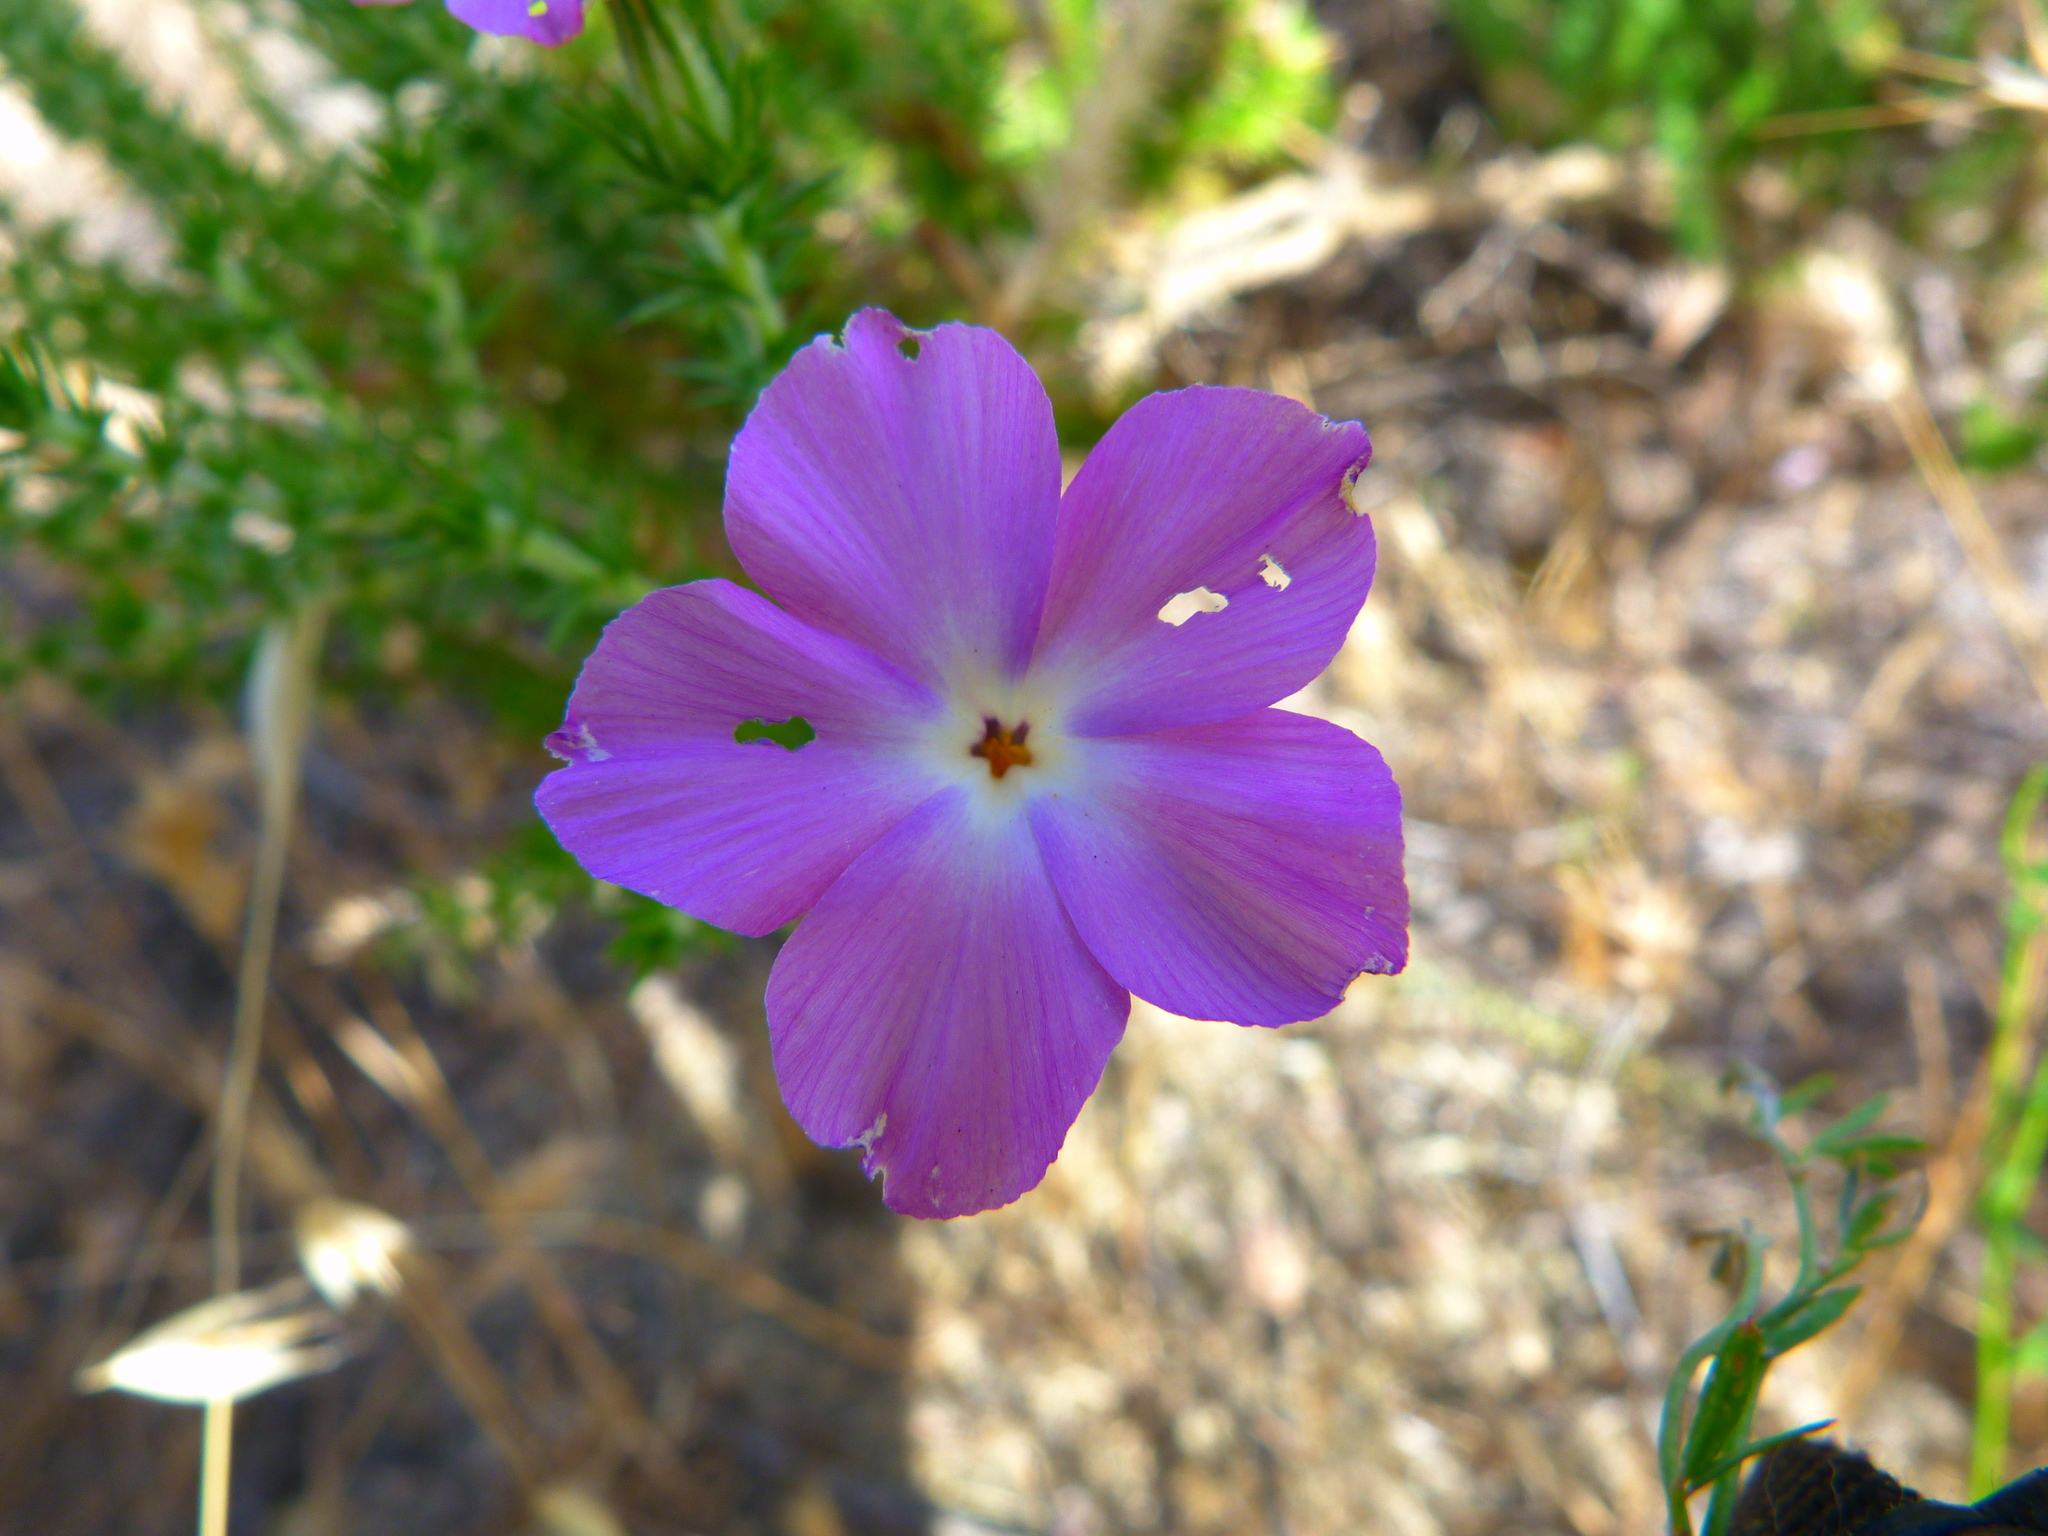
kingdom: Plantae
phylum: Tracheophyta
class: Magnoliopsida
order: Ericales
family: Polemoniaceae
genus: Linanthus
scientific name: Linanthus californicus
